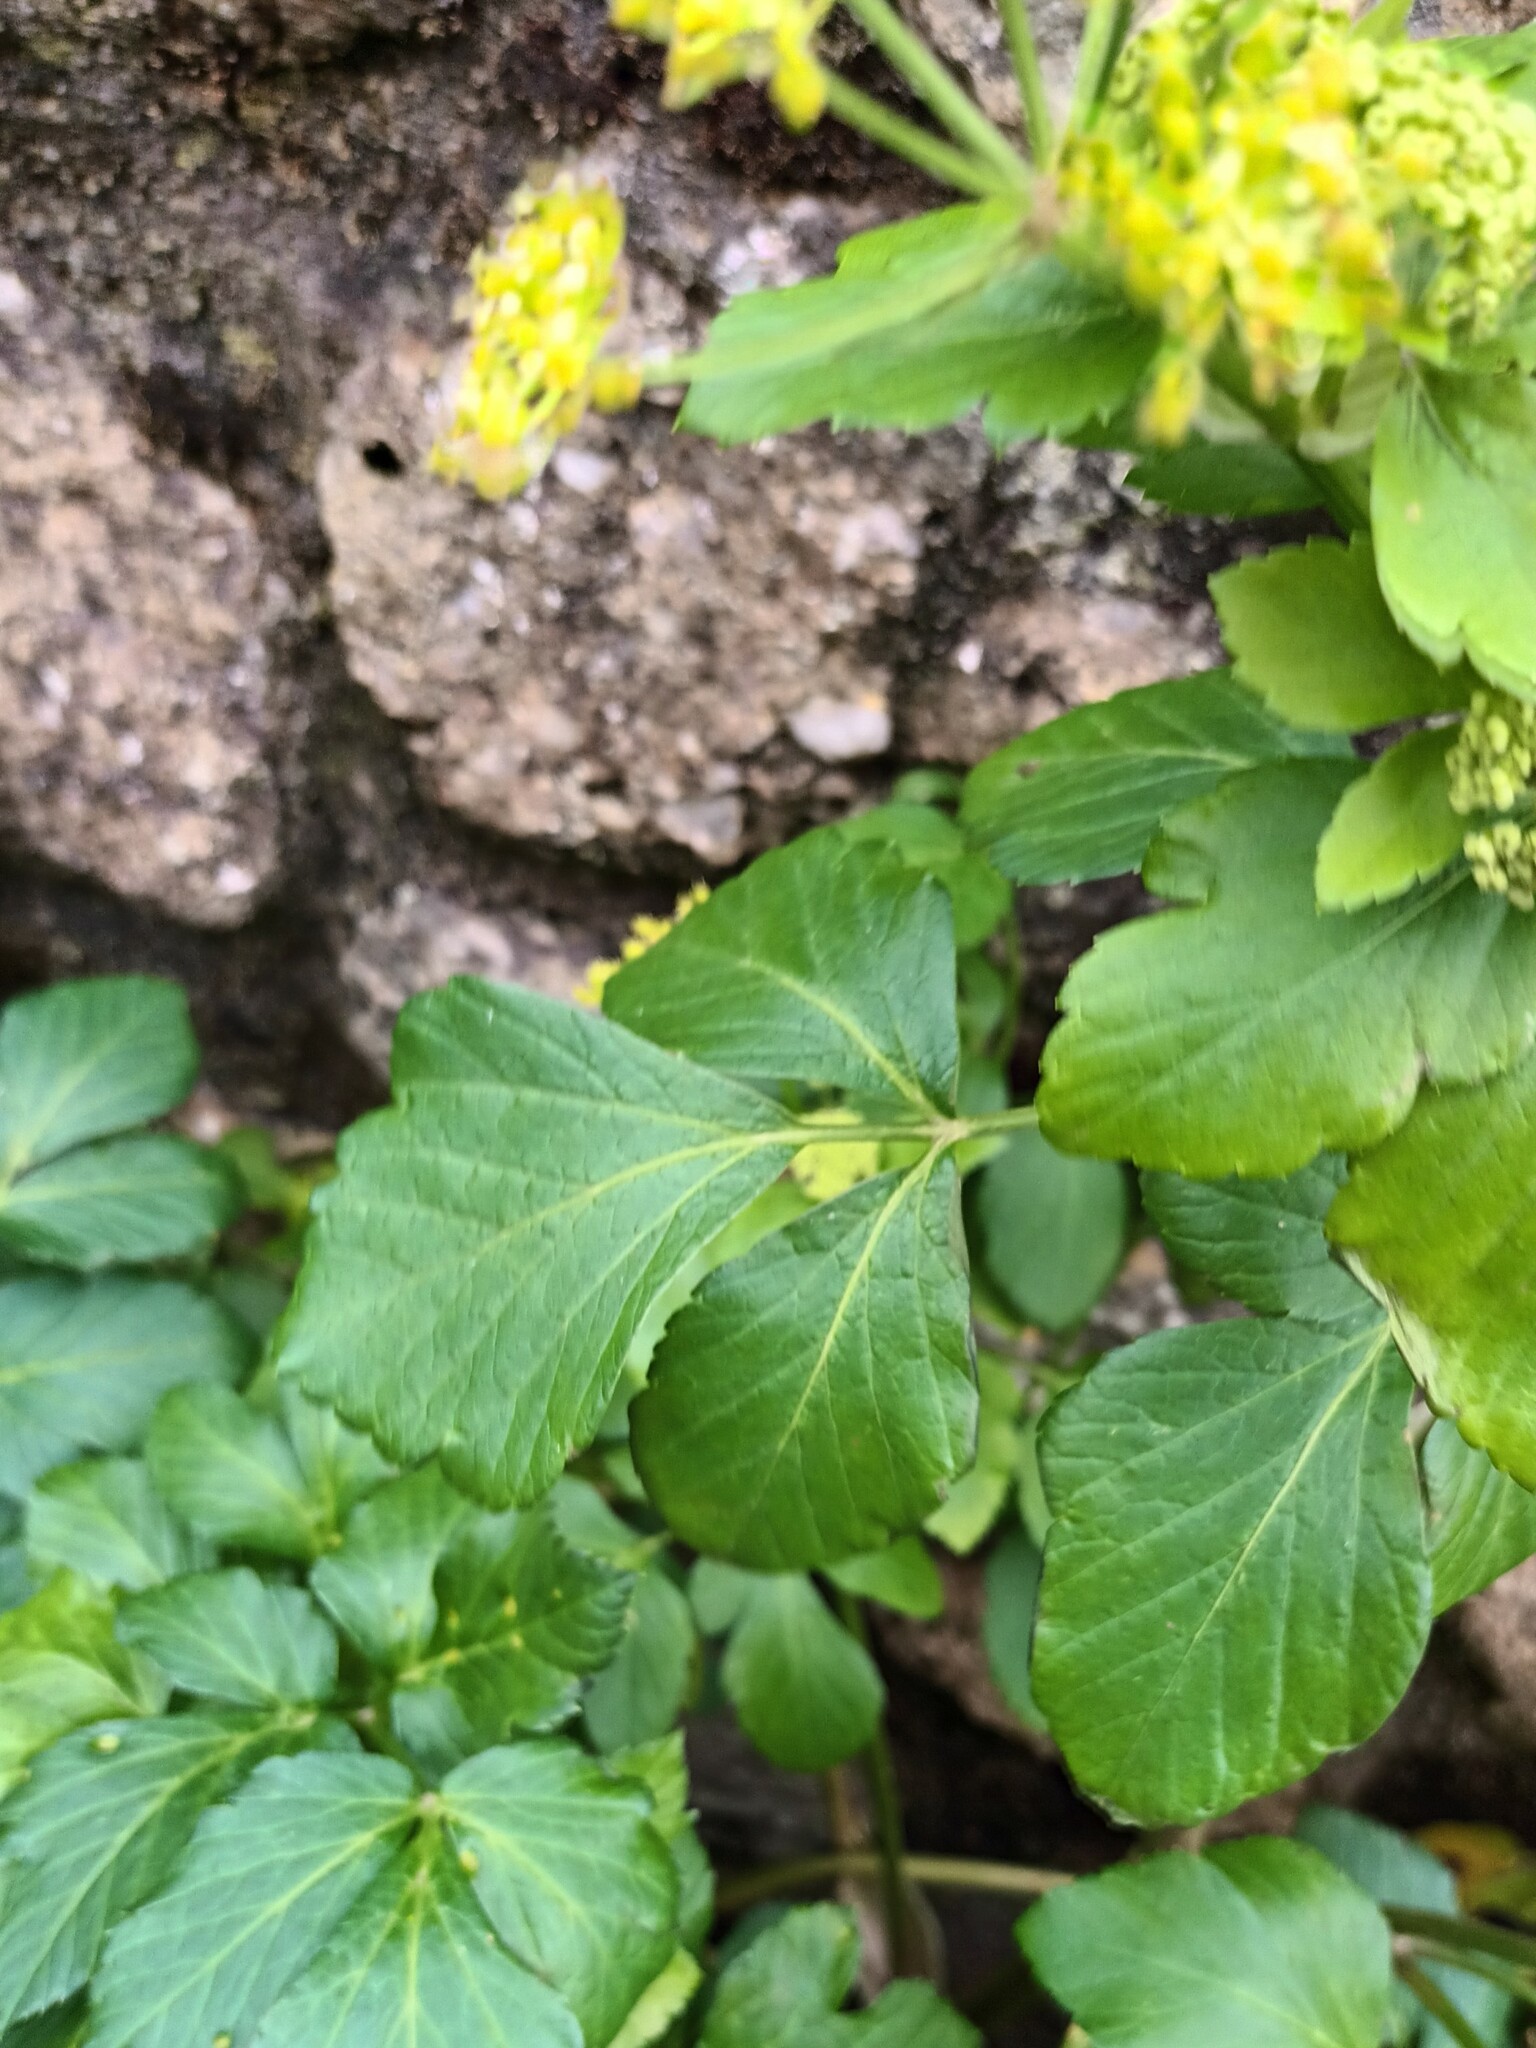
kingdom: Plantae
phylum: Tracheophyta
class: Magnoliopsida
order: Apiales
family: Apiaceae
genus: Smyrnium
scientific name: Smyrnium olusatrum
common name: Alexanders
